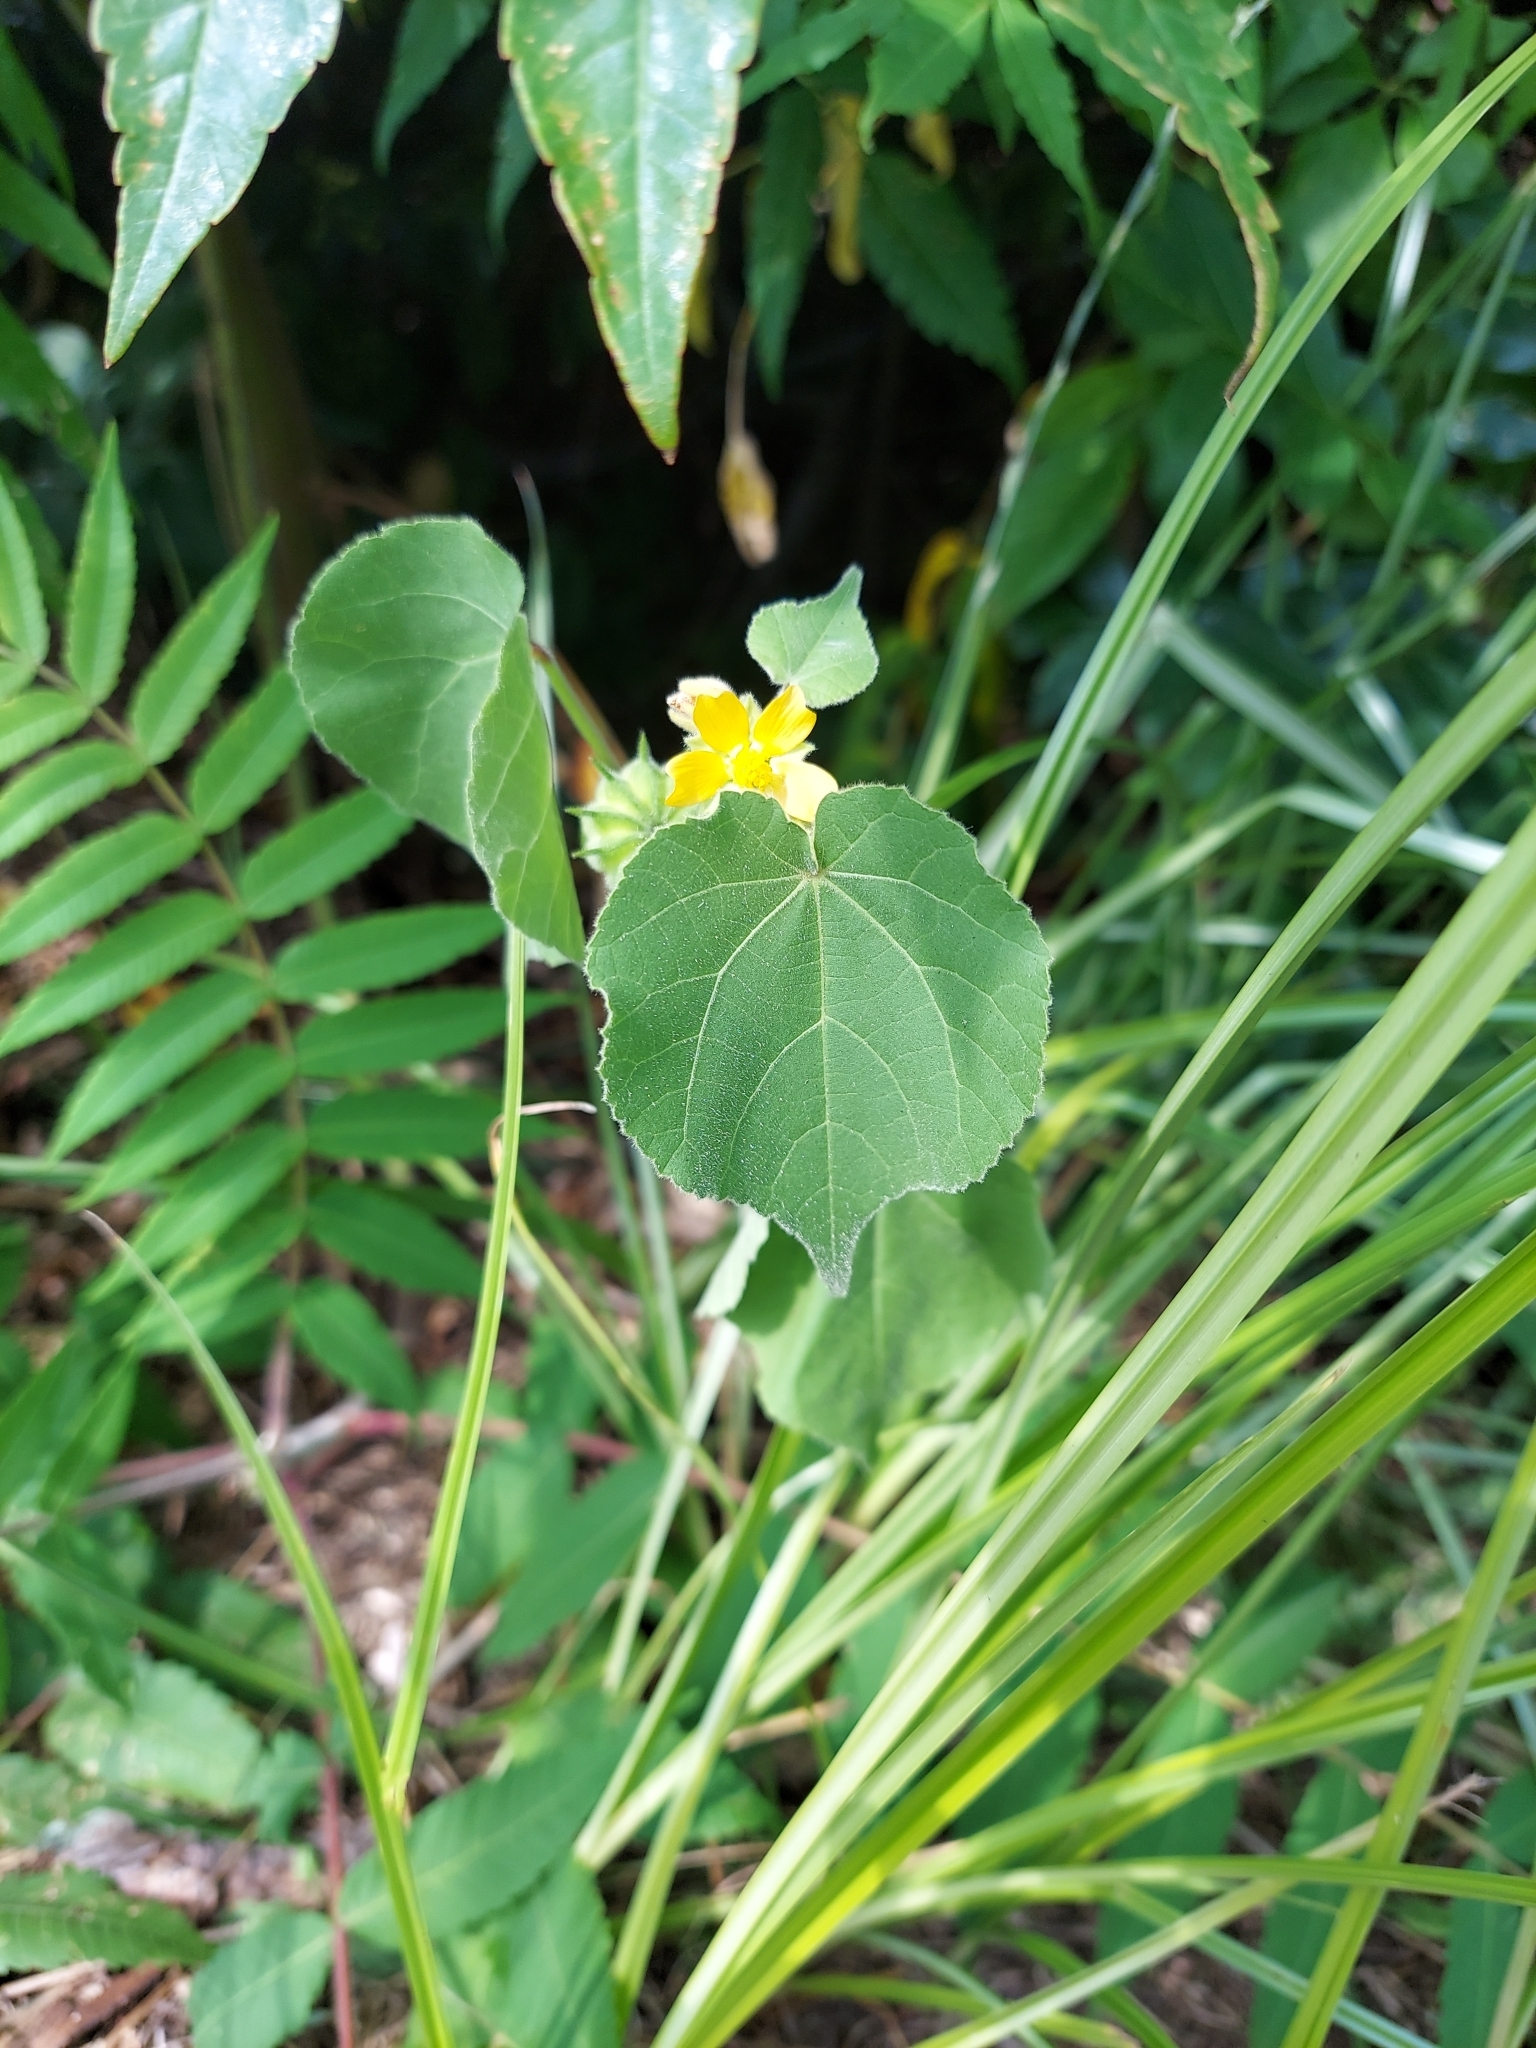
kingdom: Plantae
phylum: Tracheophyta
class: Magnoliopsida
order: Malvales
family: Malvaceae
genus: Abutilon
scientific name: Abutilon theophrasti
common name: Velvetleaf
